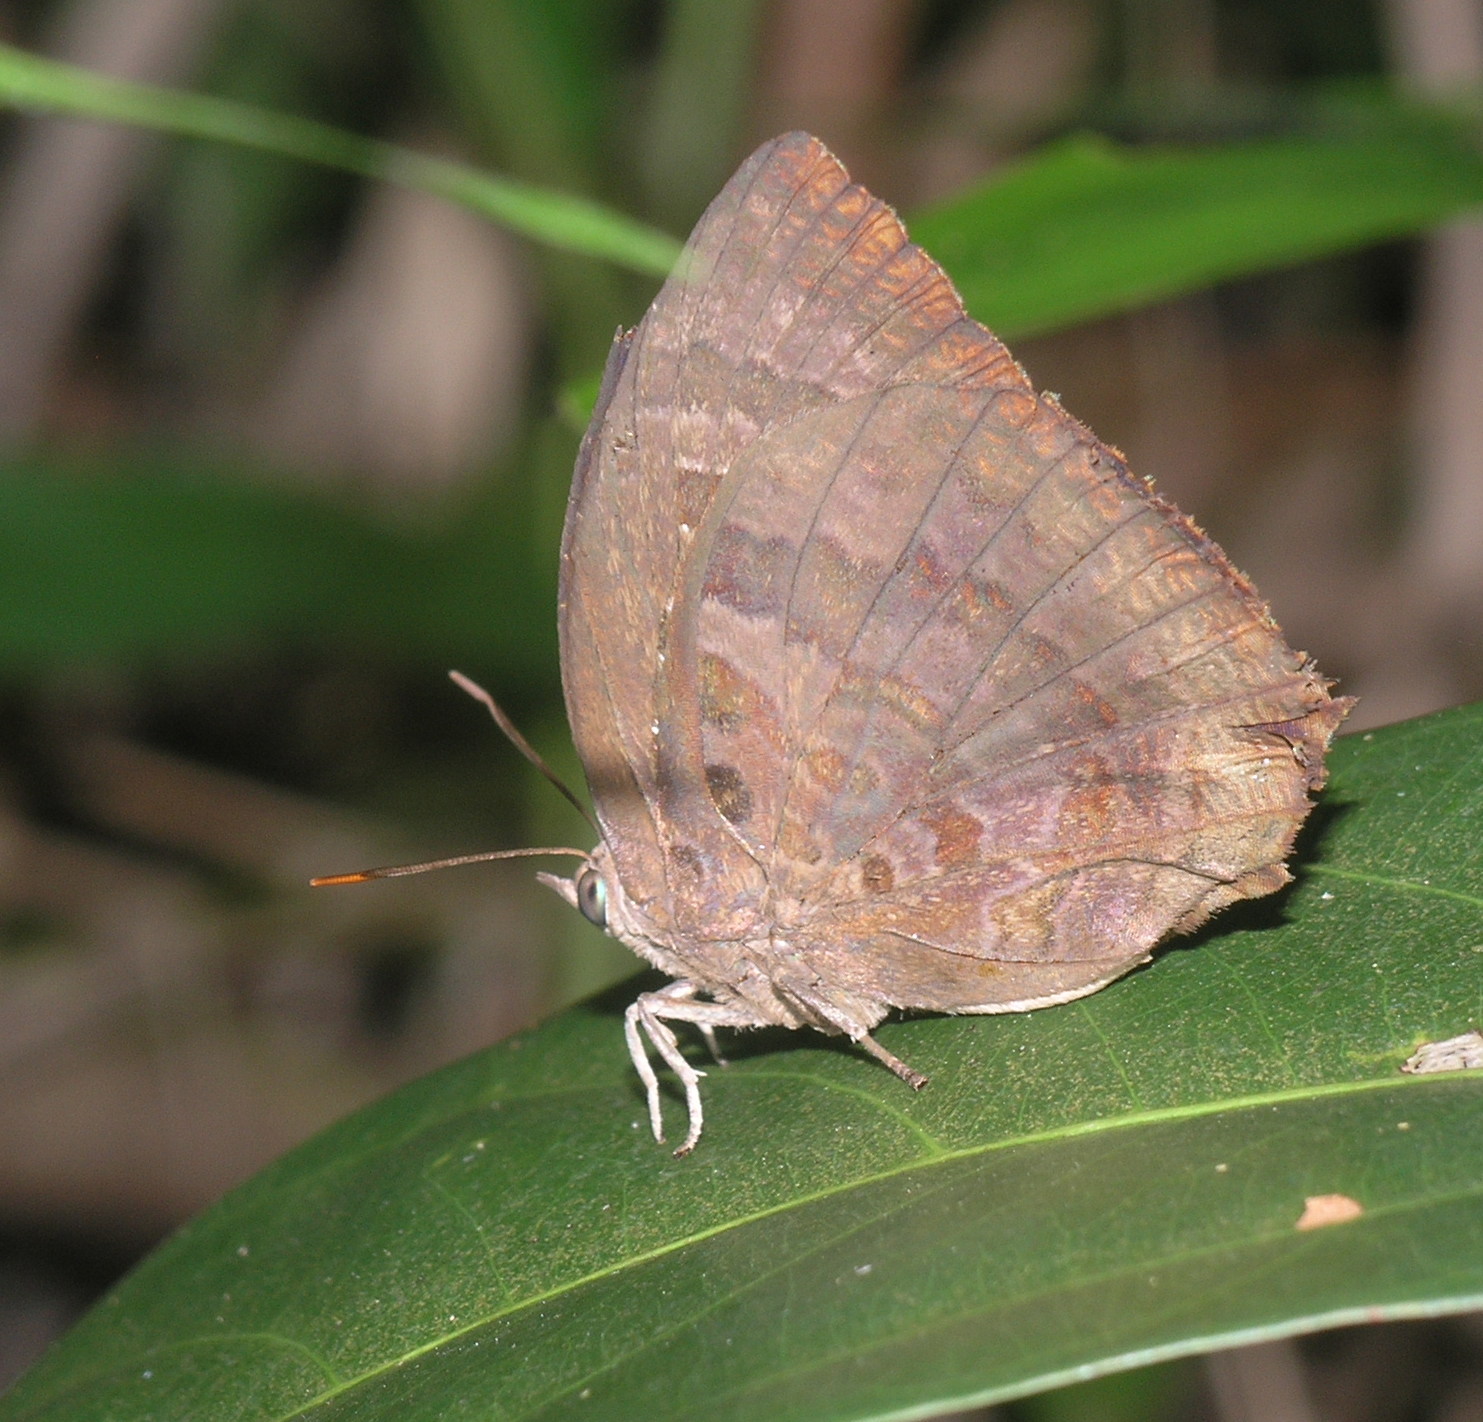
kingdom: Animalia
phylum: Arthropoda
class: Insecta
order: Lepidoptera
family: Lycaenidae
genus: Arhopala
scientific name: Arhopala centaurus
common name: Dull oak-blue
